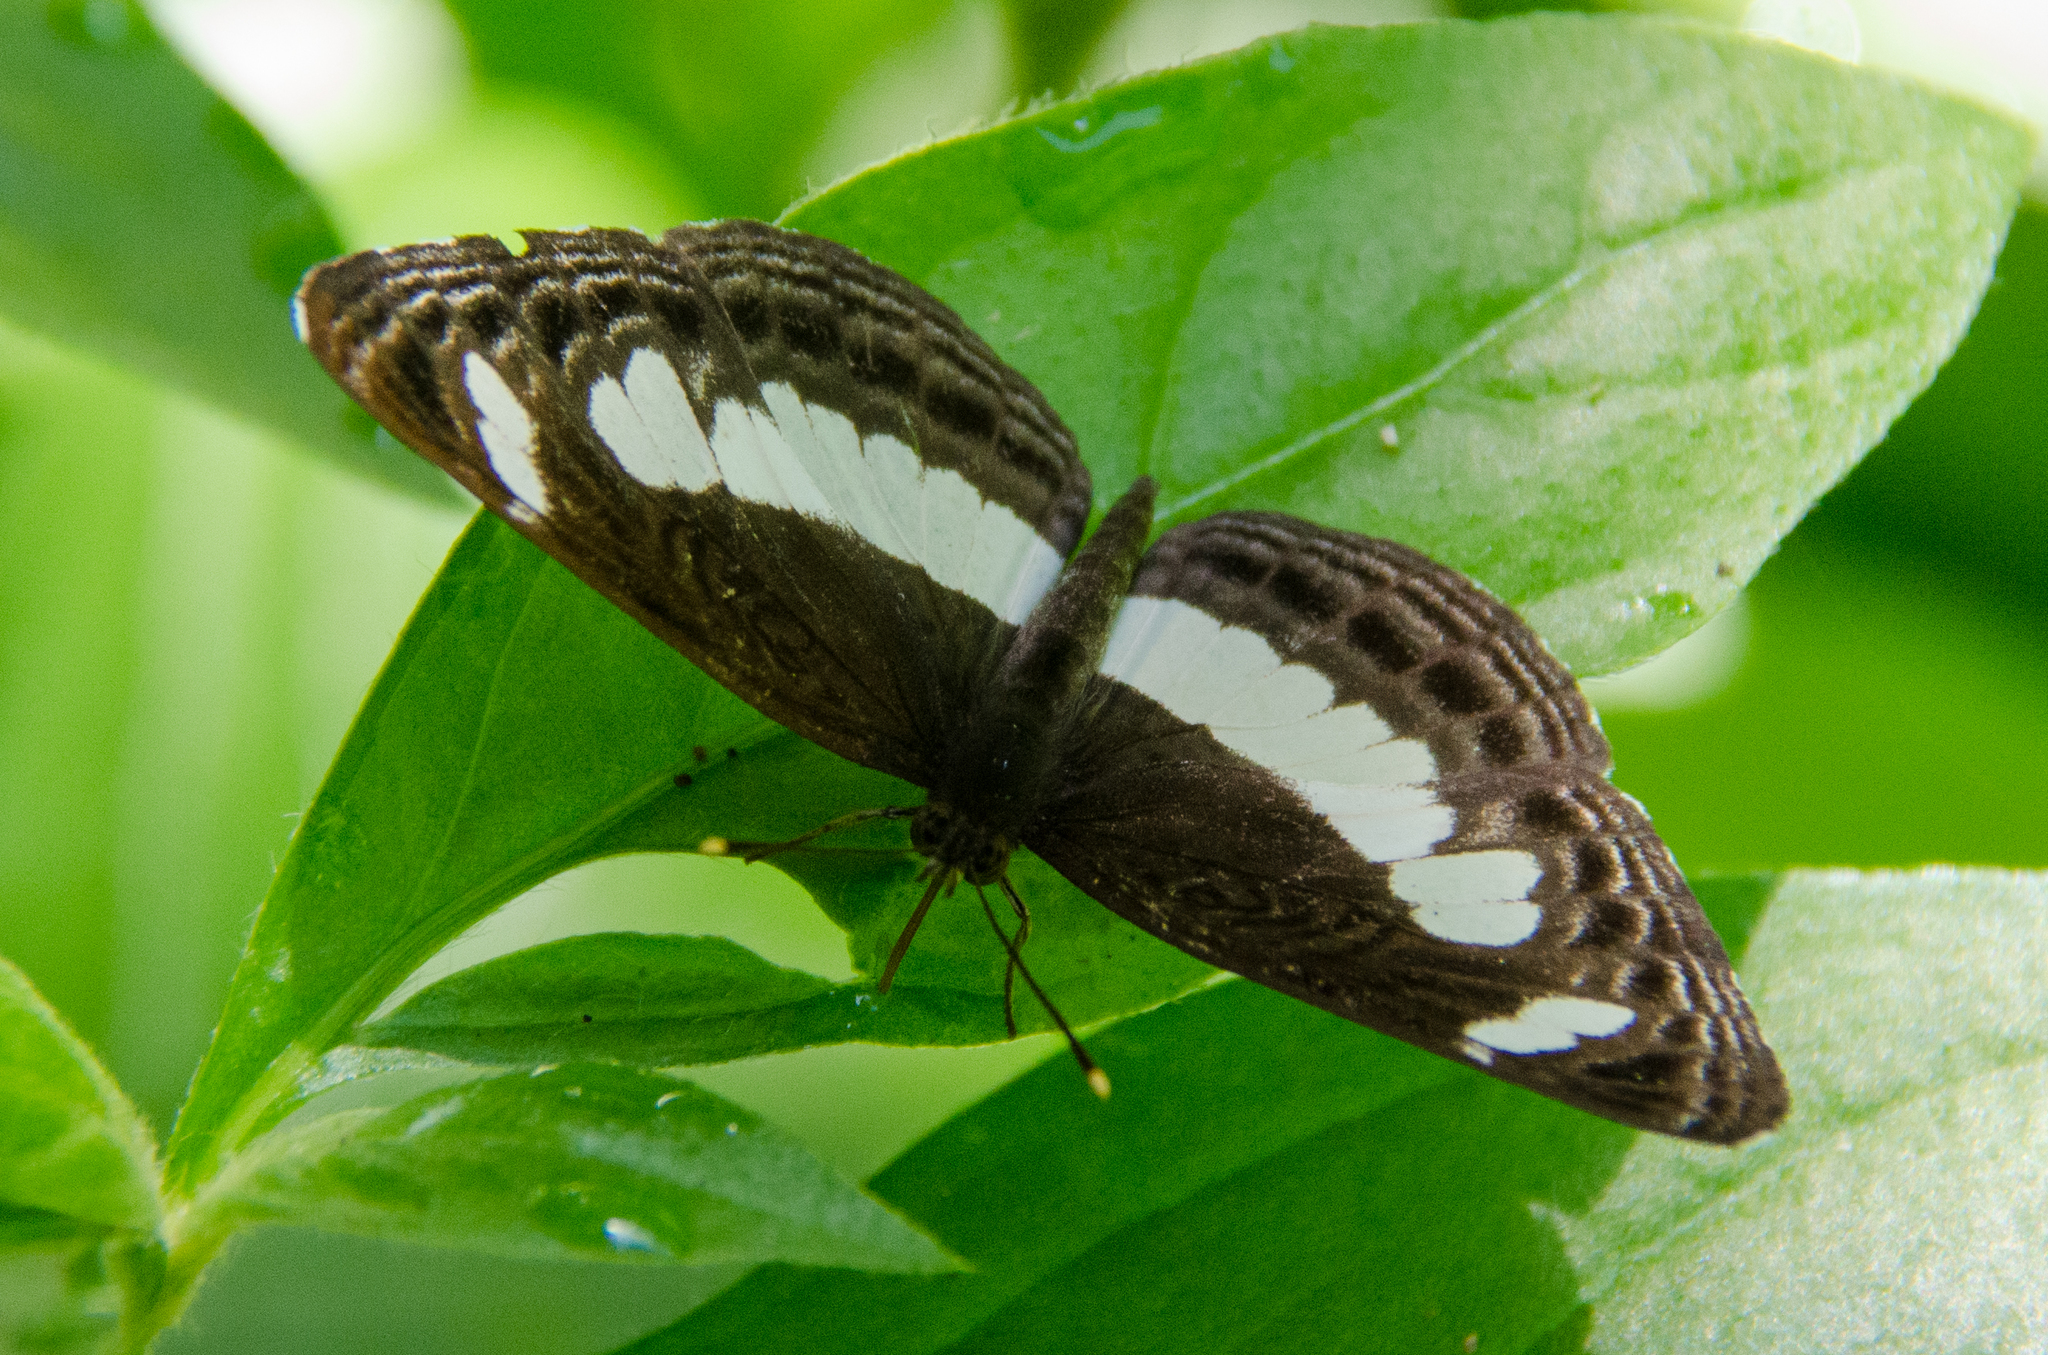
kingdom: Animalia
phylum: Arthropoda
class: Insecta
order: Lepidoptera
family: Nymphalidae
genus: Neptis
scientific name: Neptis nemetes
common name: Nemetes sailer
